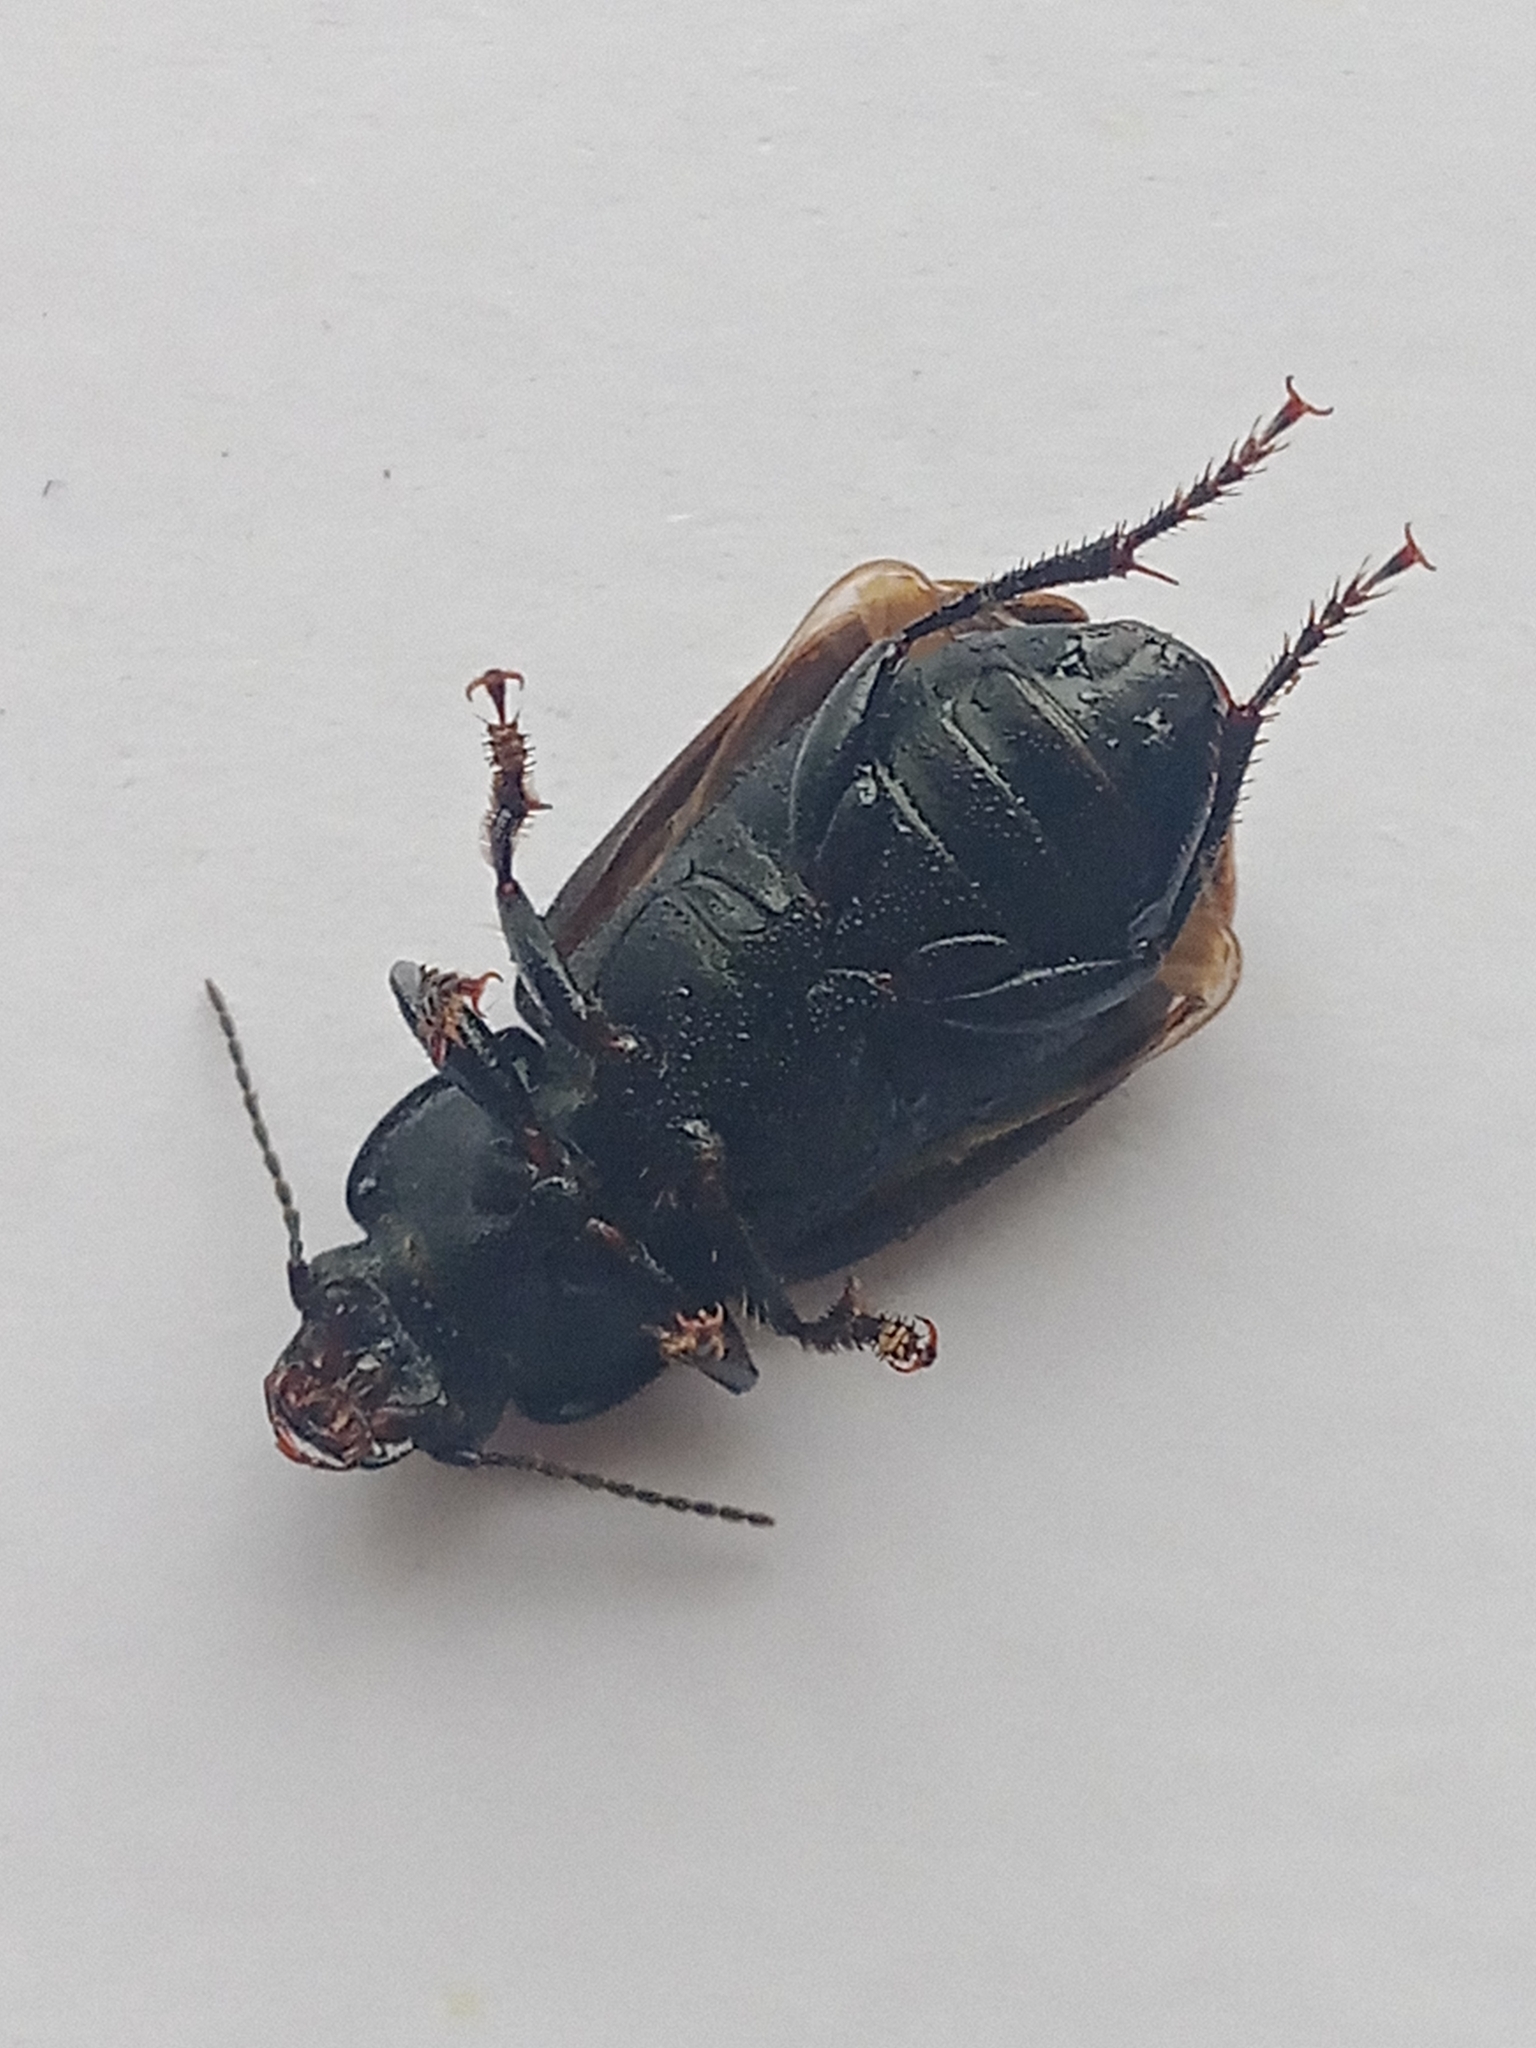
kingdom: Animalia
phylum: Arthropoda
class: Insecta
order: Coleoptera
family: Carabidae
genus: Anisodactylus
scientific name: Anisodactylus signatus
